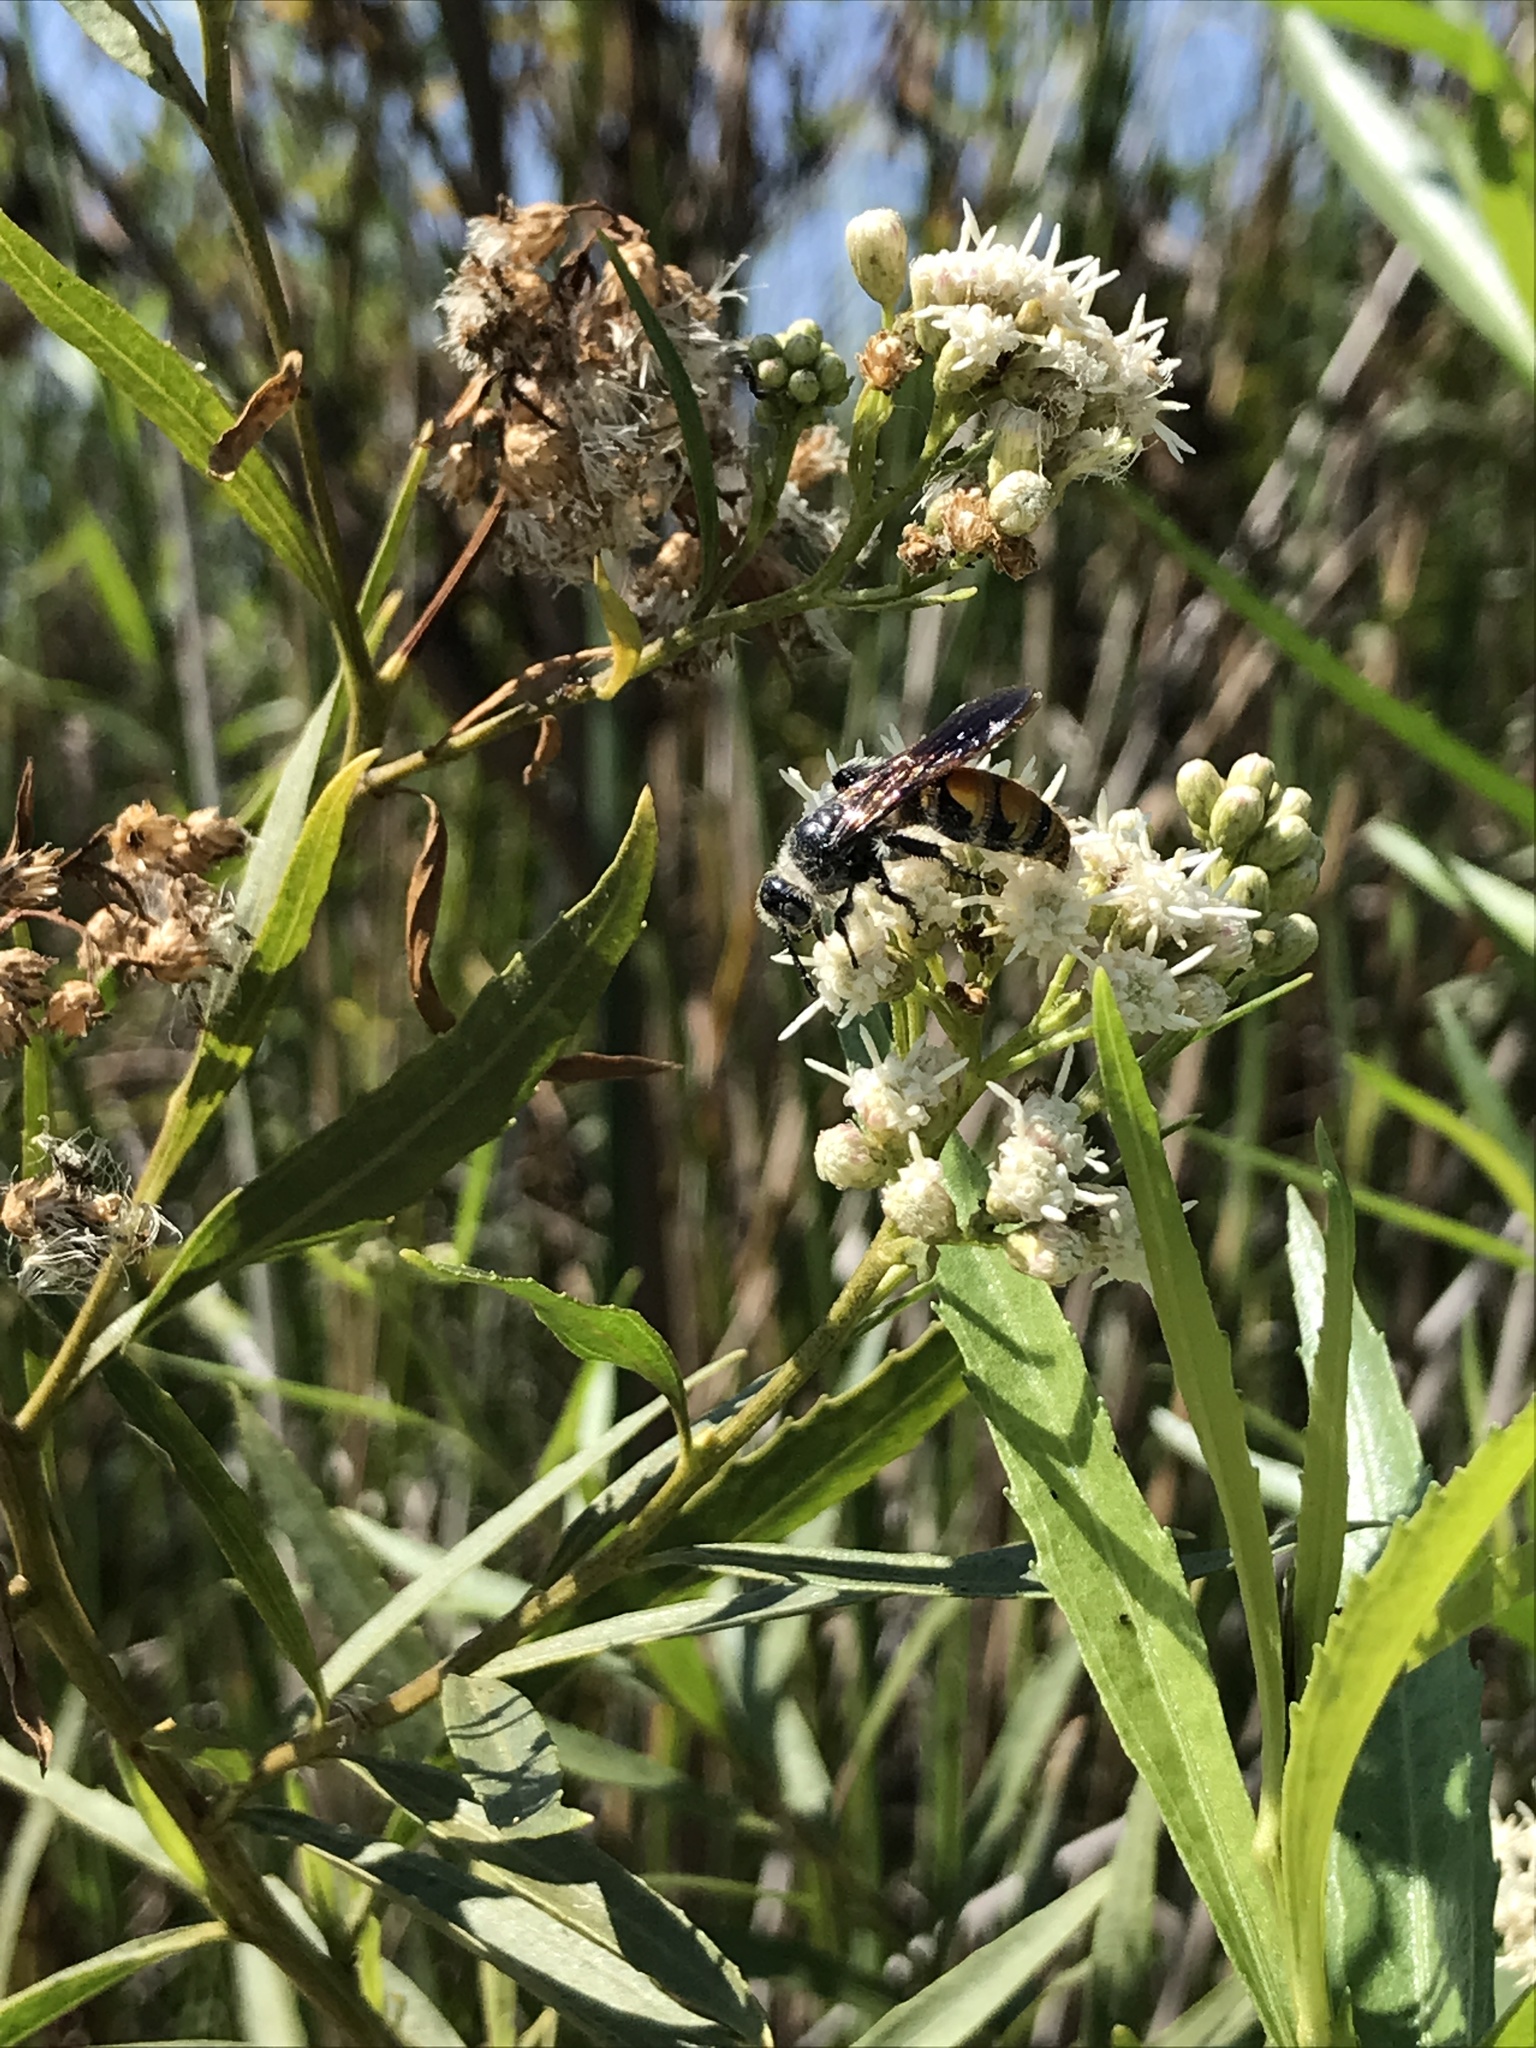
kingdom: Animalia
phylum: Arthropoda
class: Insecta
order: Hymenoptera
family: Scoliidae
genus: Dielis
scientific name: Dielis tolteca
